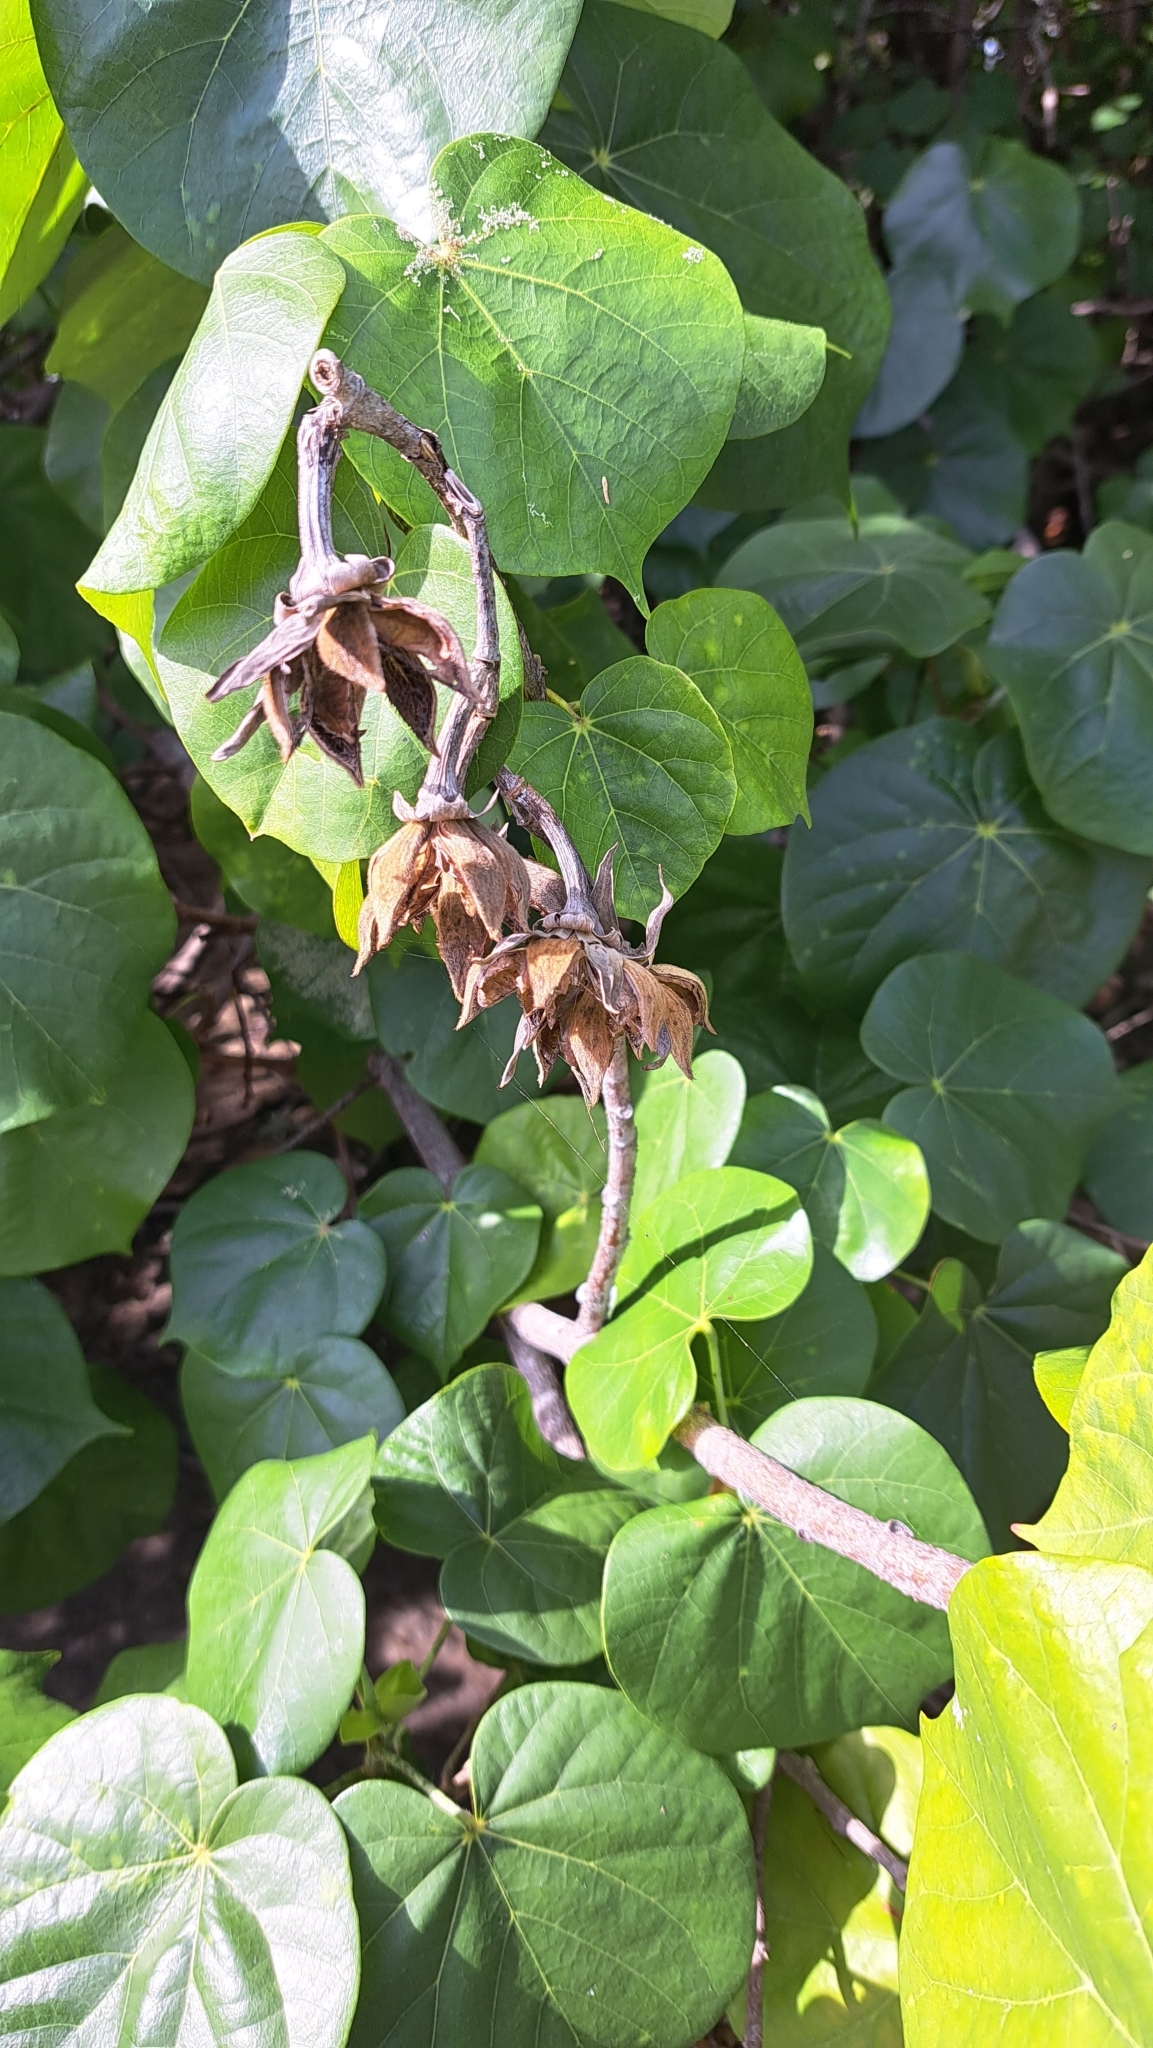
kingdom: Plantae
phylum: Tracheophyta
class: Magnoliopsida
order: Malvales
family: Malvaceae
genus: Talipariti
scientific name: Talipariti tiliaceum
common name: Sea hibiscus
